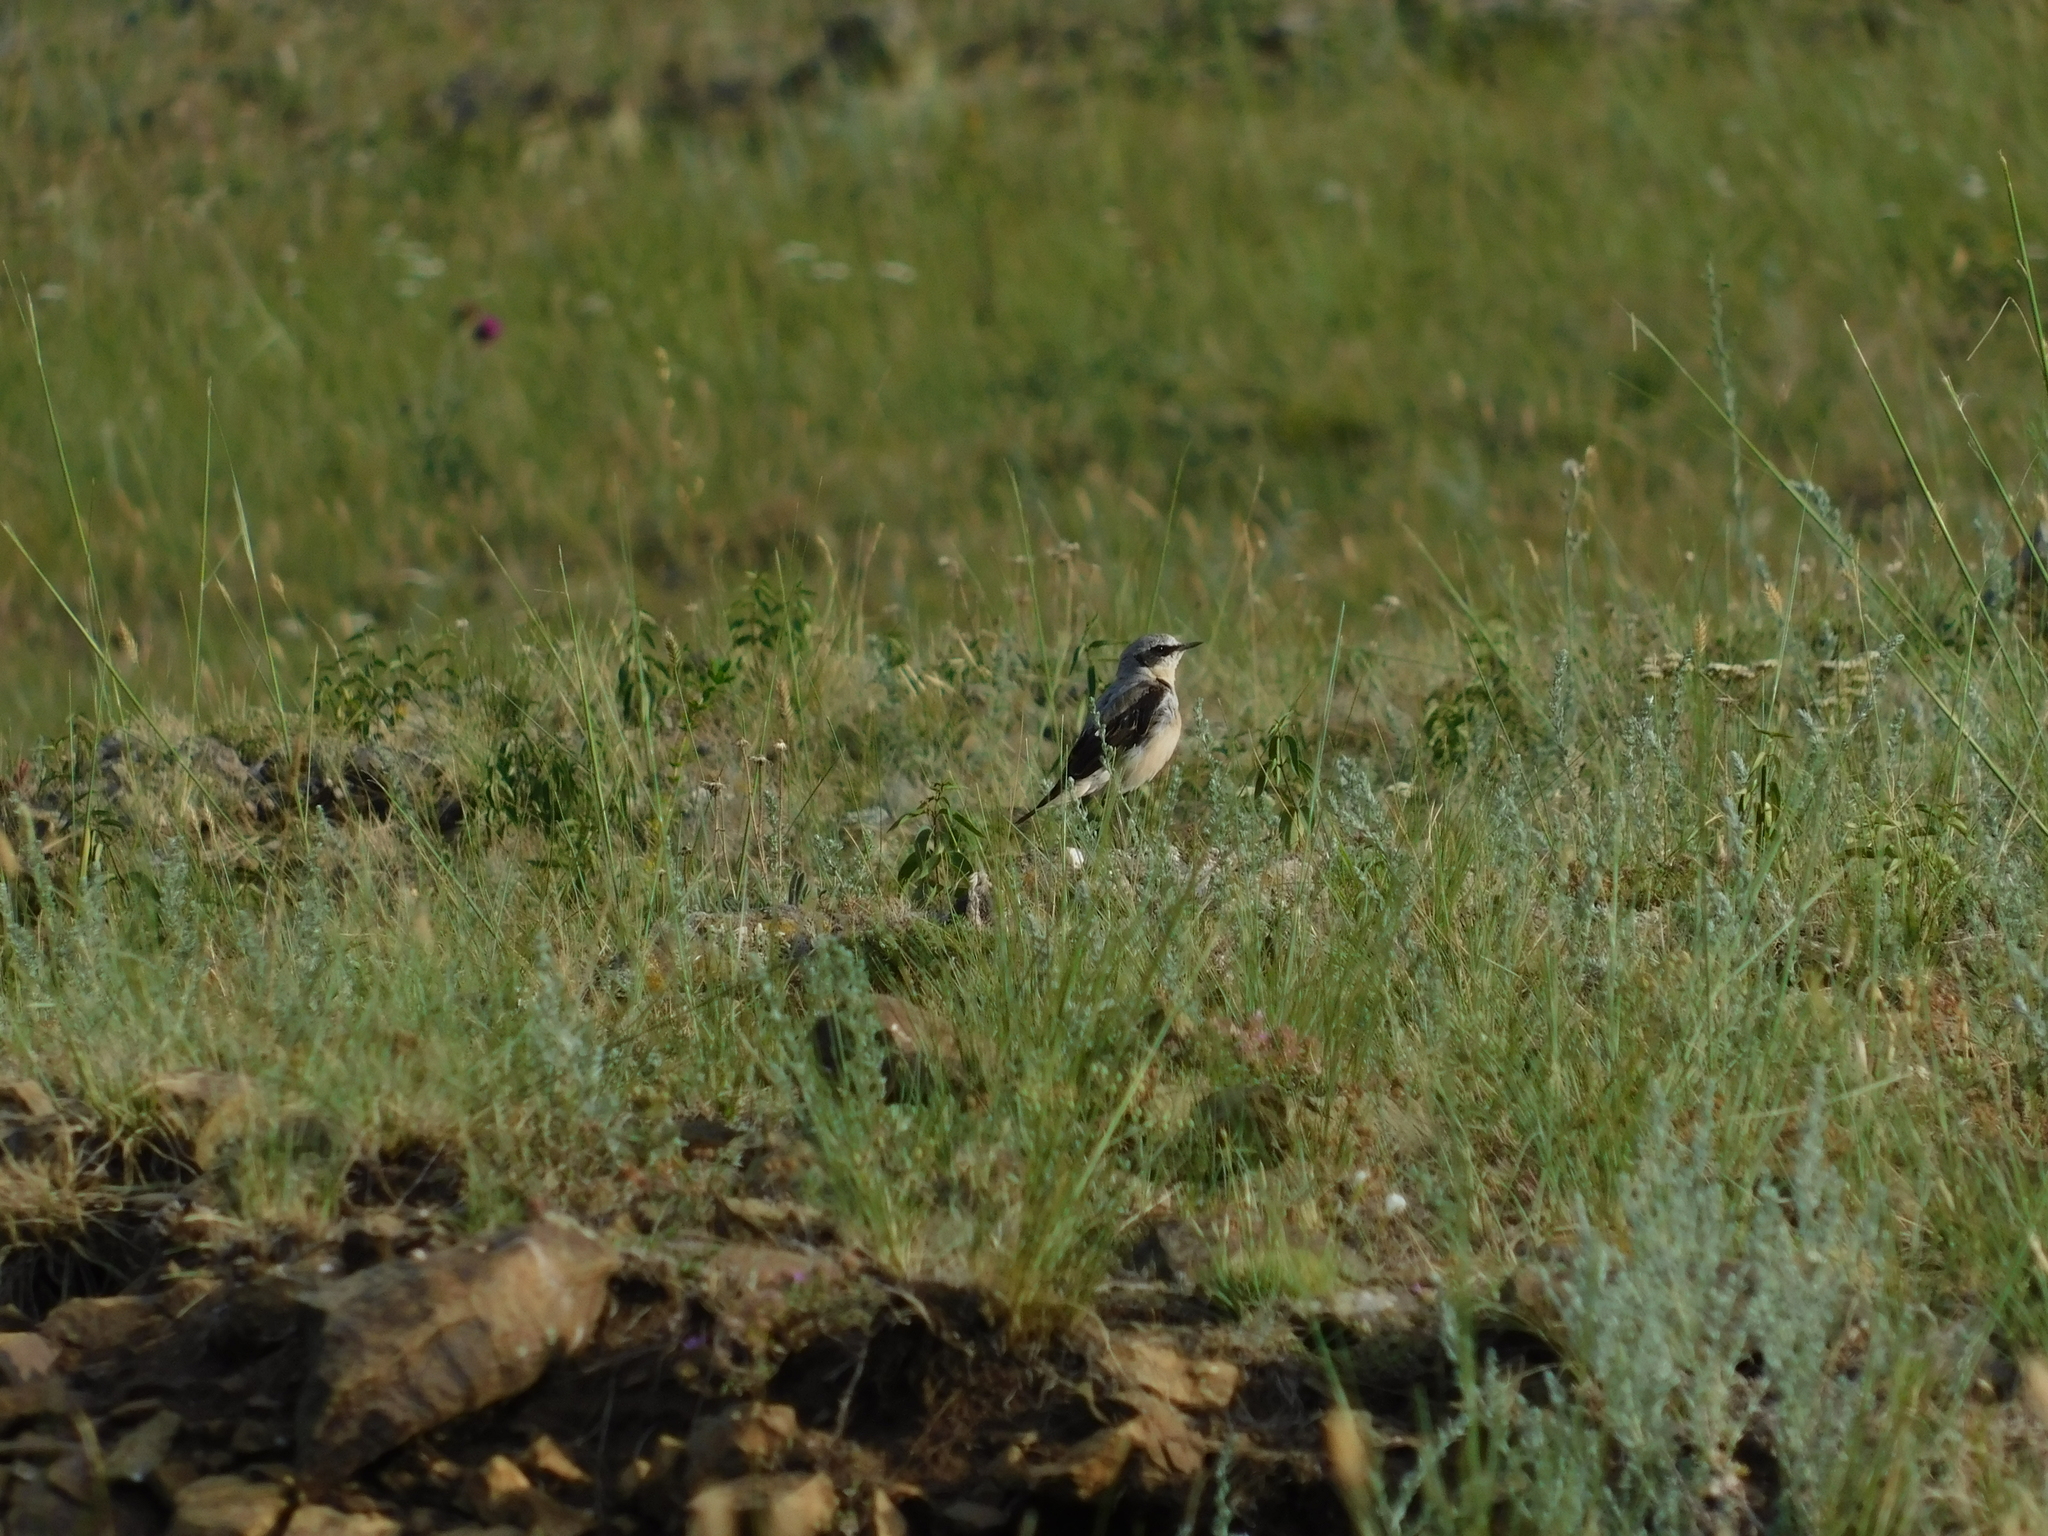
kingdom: Animalia
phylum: Chordata
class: Aves
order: Passeriformes
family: Muscicapidae
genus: Oenanthe
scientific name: Oenanthe oenanthe
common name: Northern wheatear
